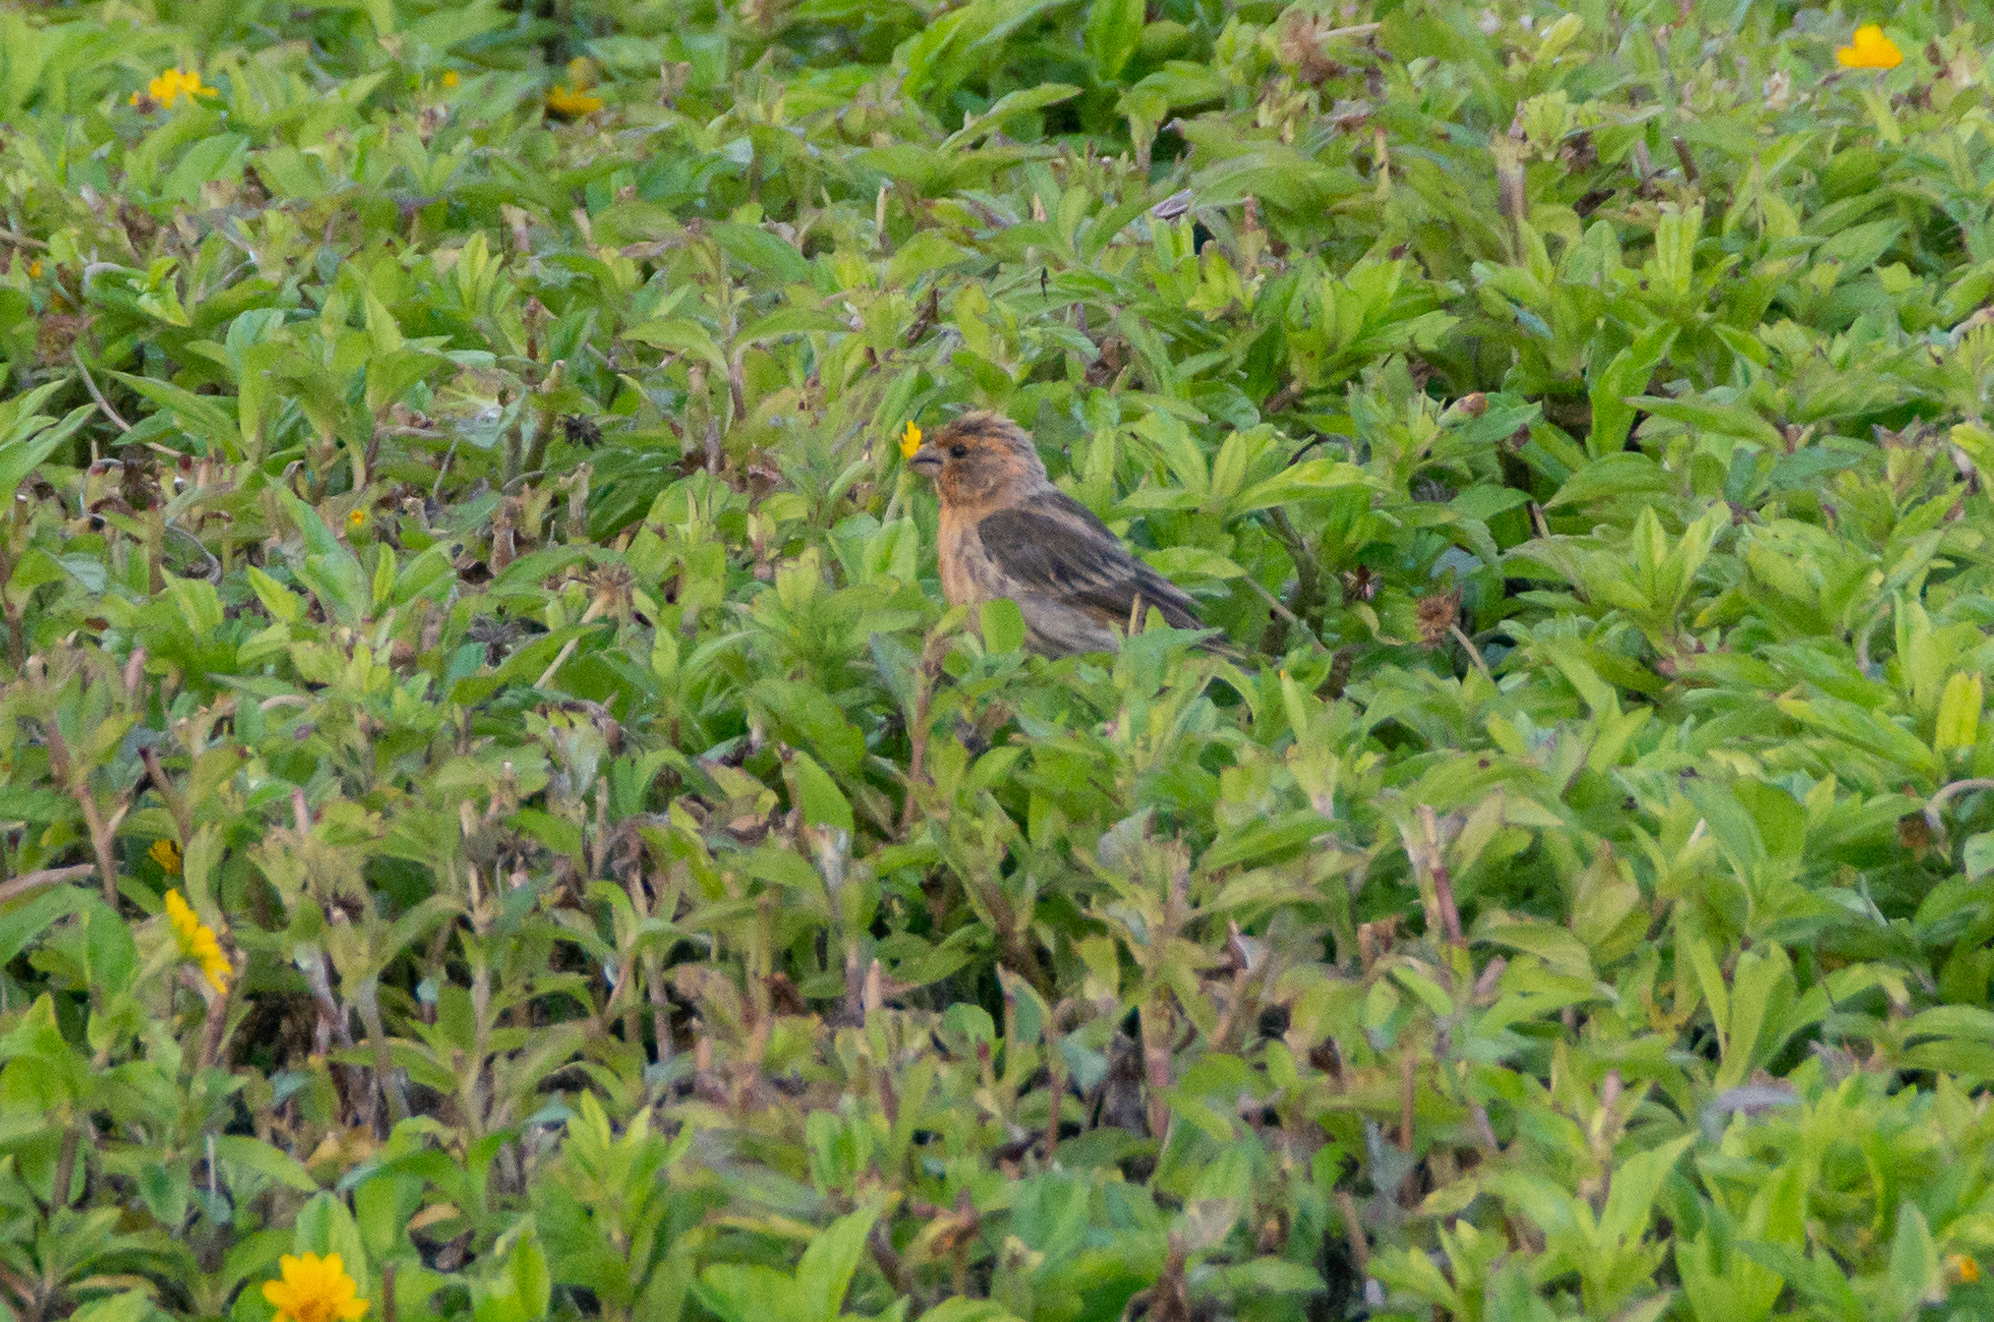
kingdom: Animalia
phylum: Chordata
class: Aves
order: Passeriformes
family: Fringillidae
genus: Haemorhous
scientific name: Haemorhous mexicanus
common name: House finch
